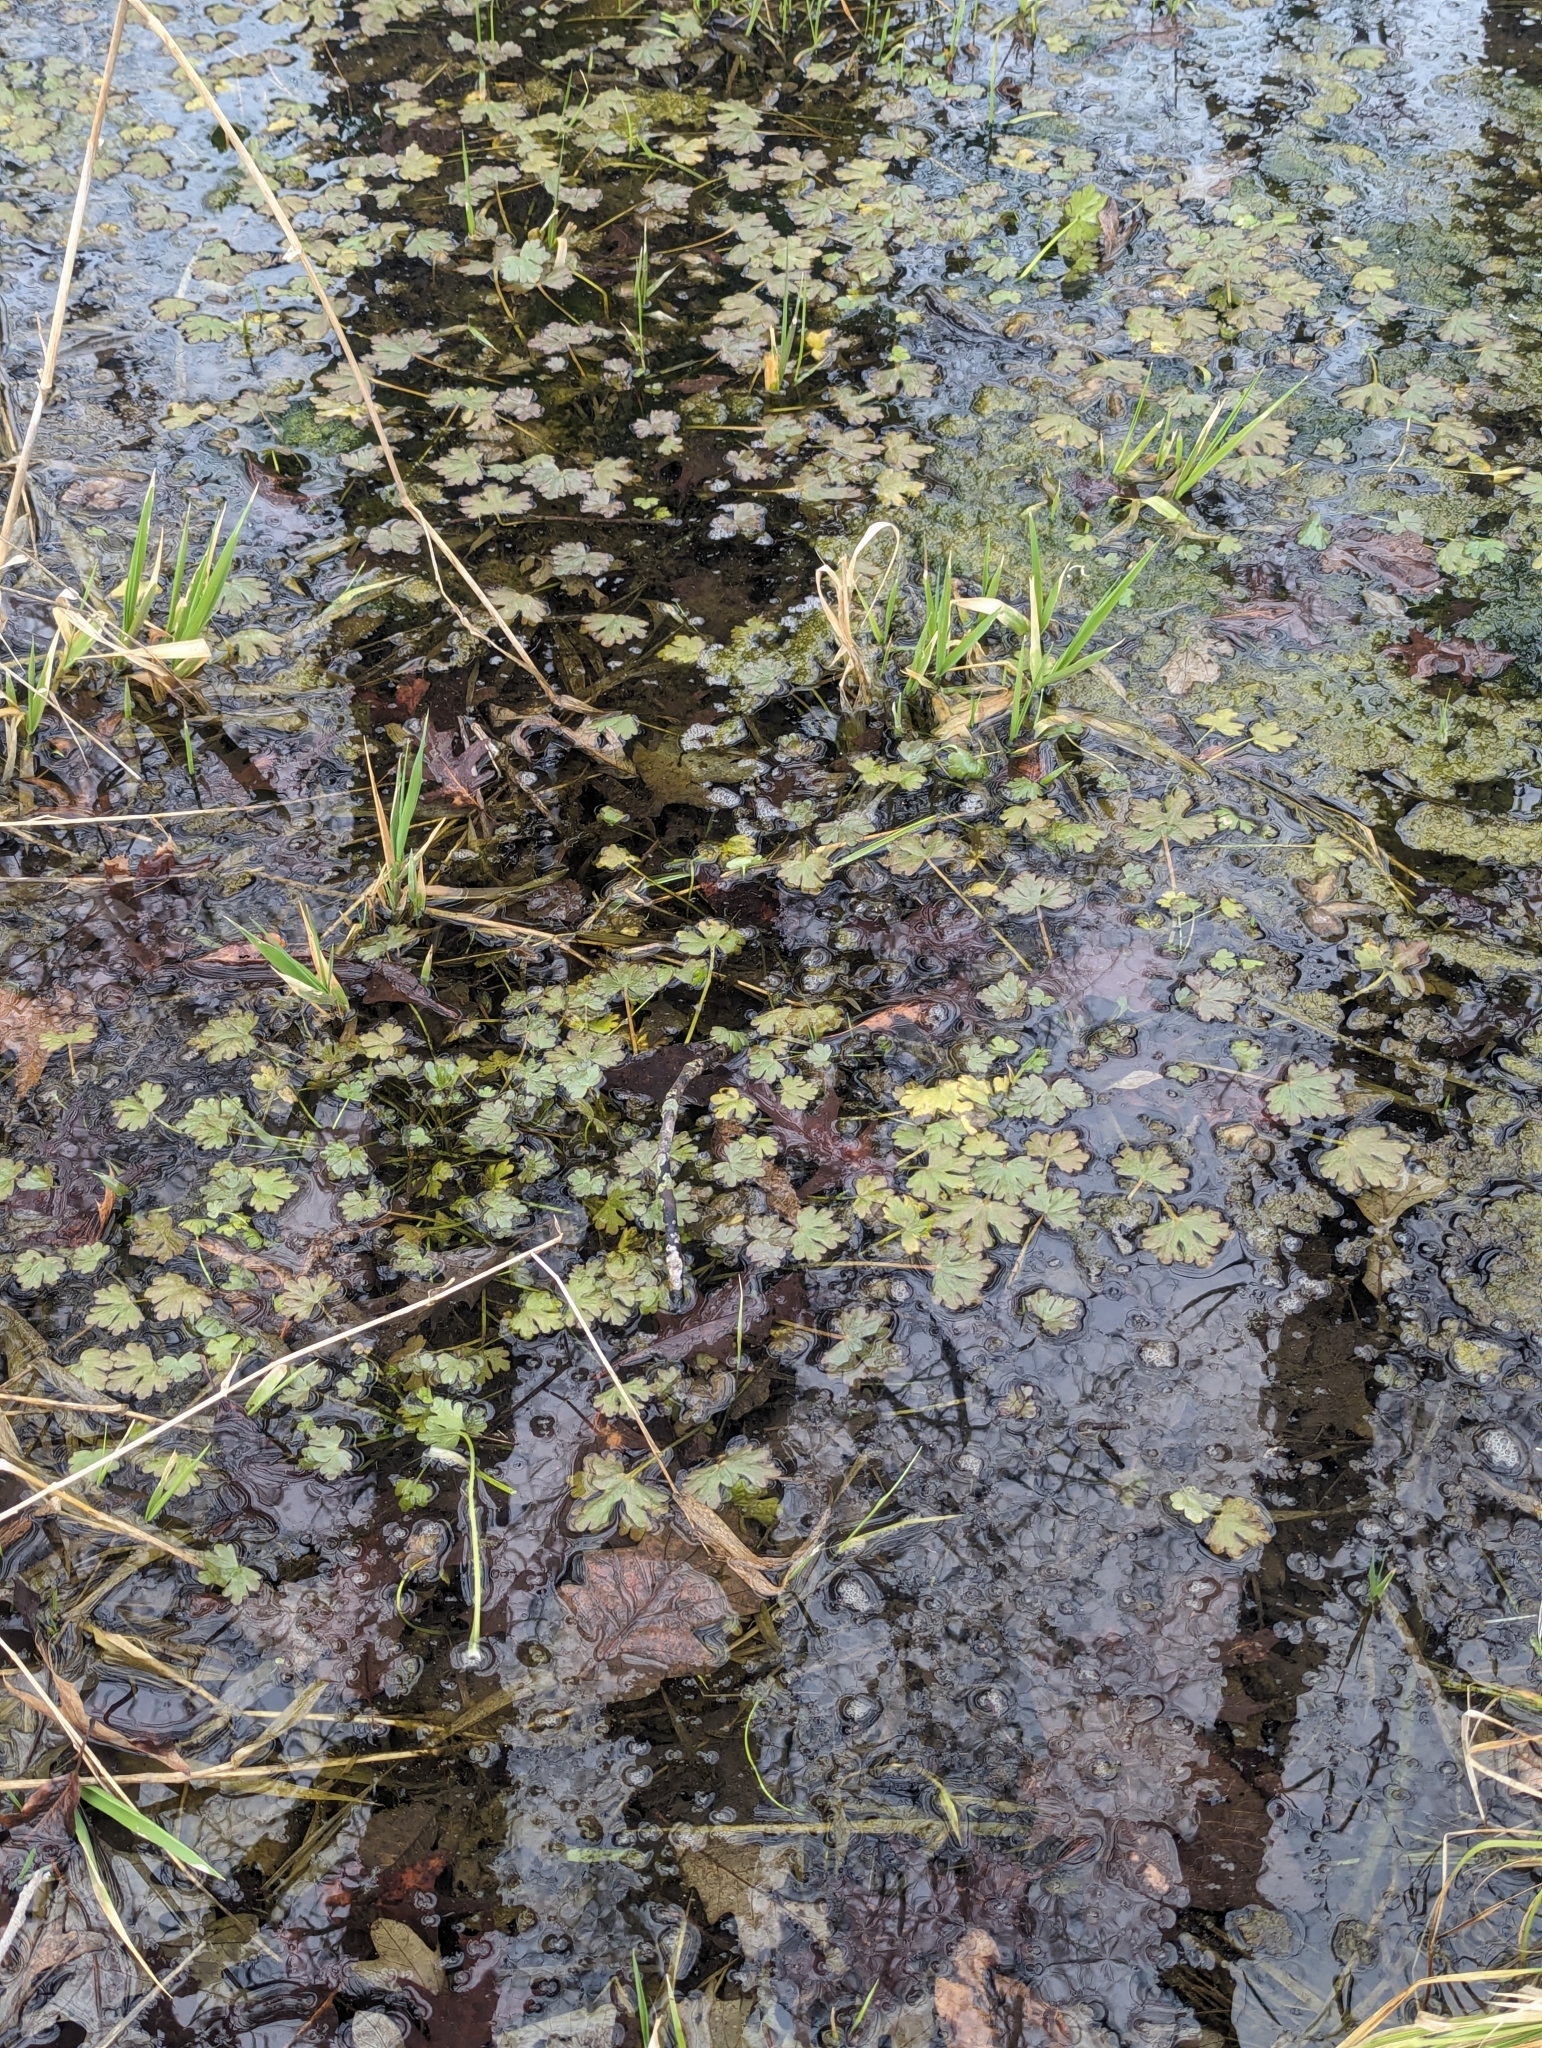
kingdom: Plantae
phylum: Tracheophyta
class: Magnoliopsida
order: Ranunculales
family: Ranunculaceae
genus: Ranunculus
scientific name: Ranunculus sceleratus
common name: Celery-leaved buttercup
